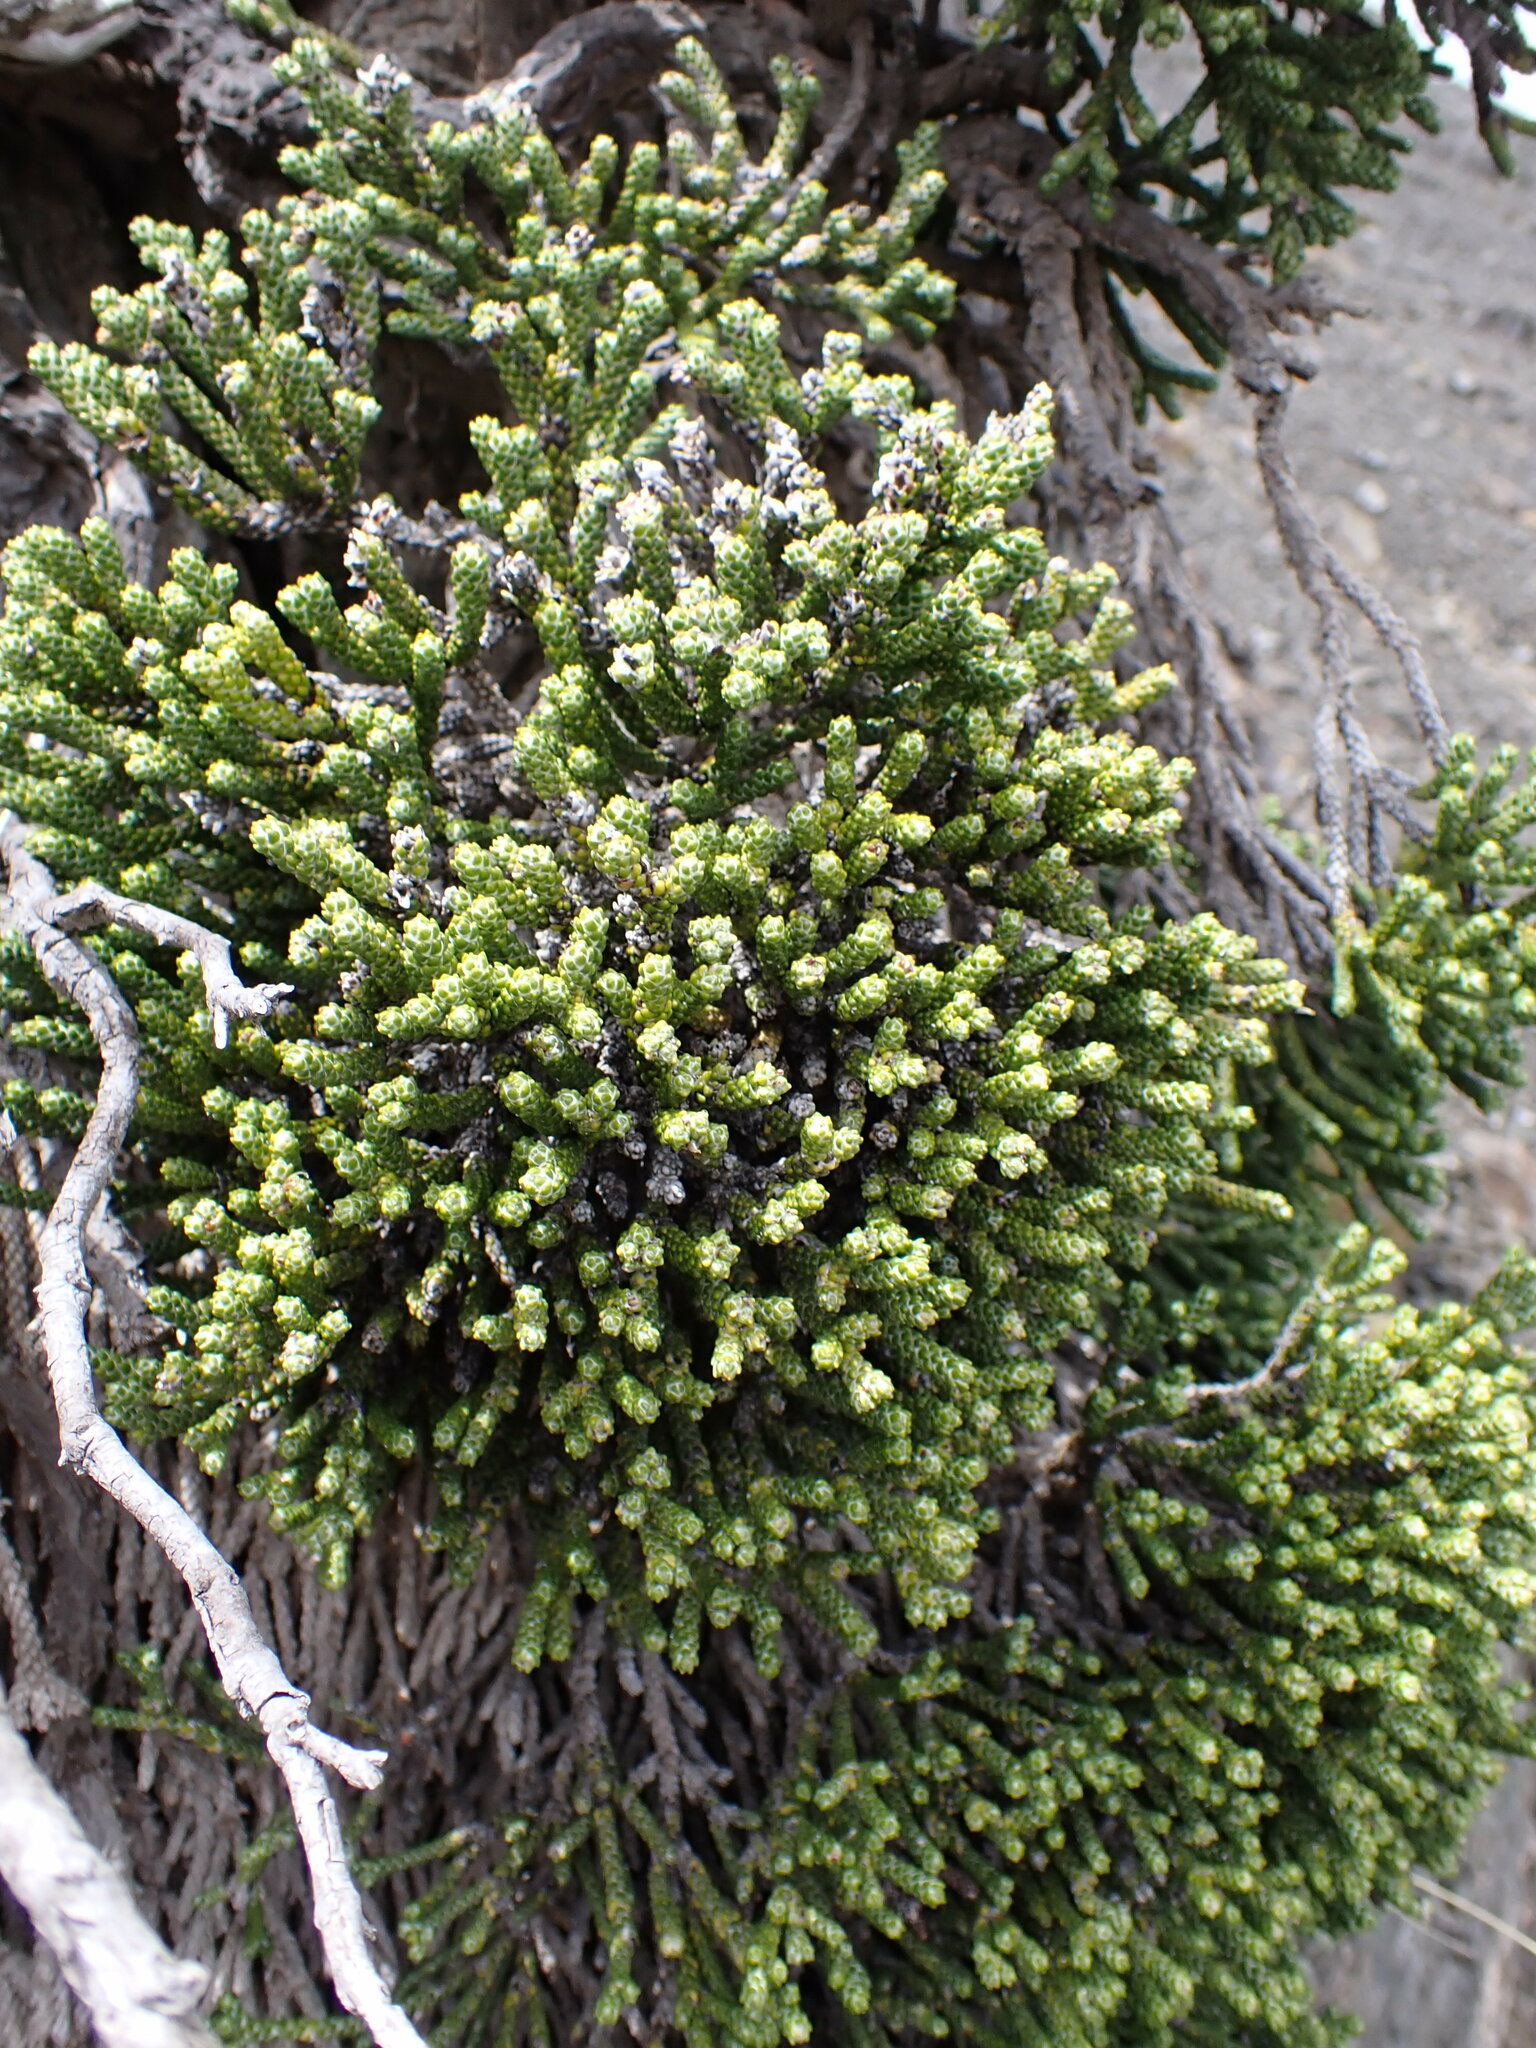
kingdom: Plantae
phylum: Tracheophyta
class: Magnoliopsida
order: Asterales
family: Asteraceae
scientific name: Asteraceae
